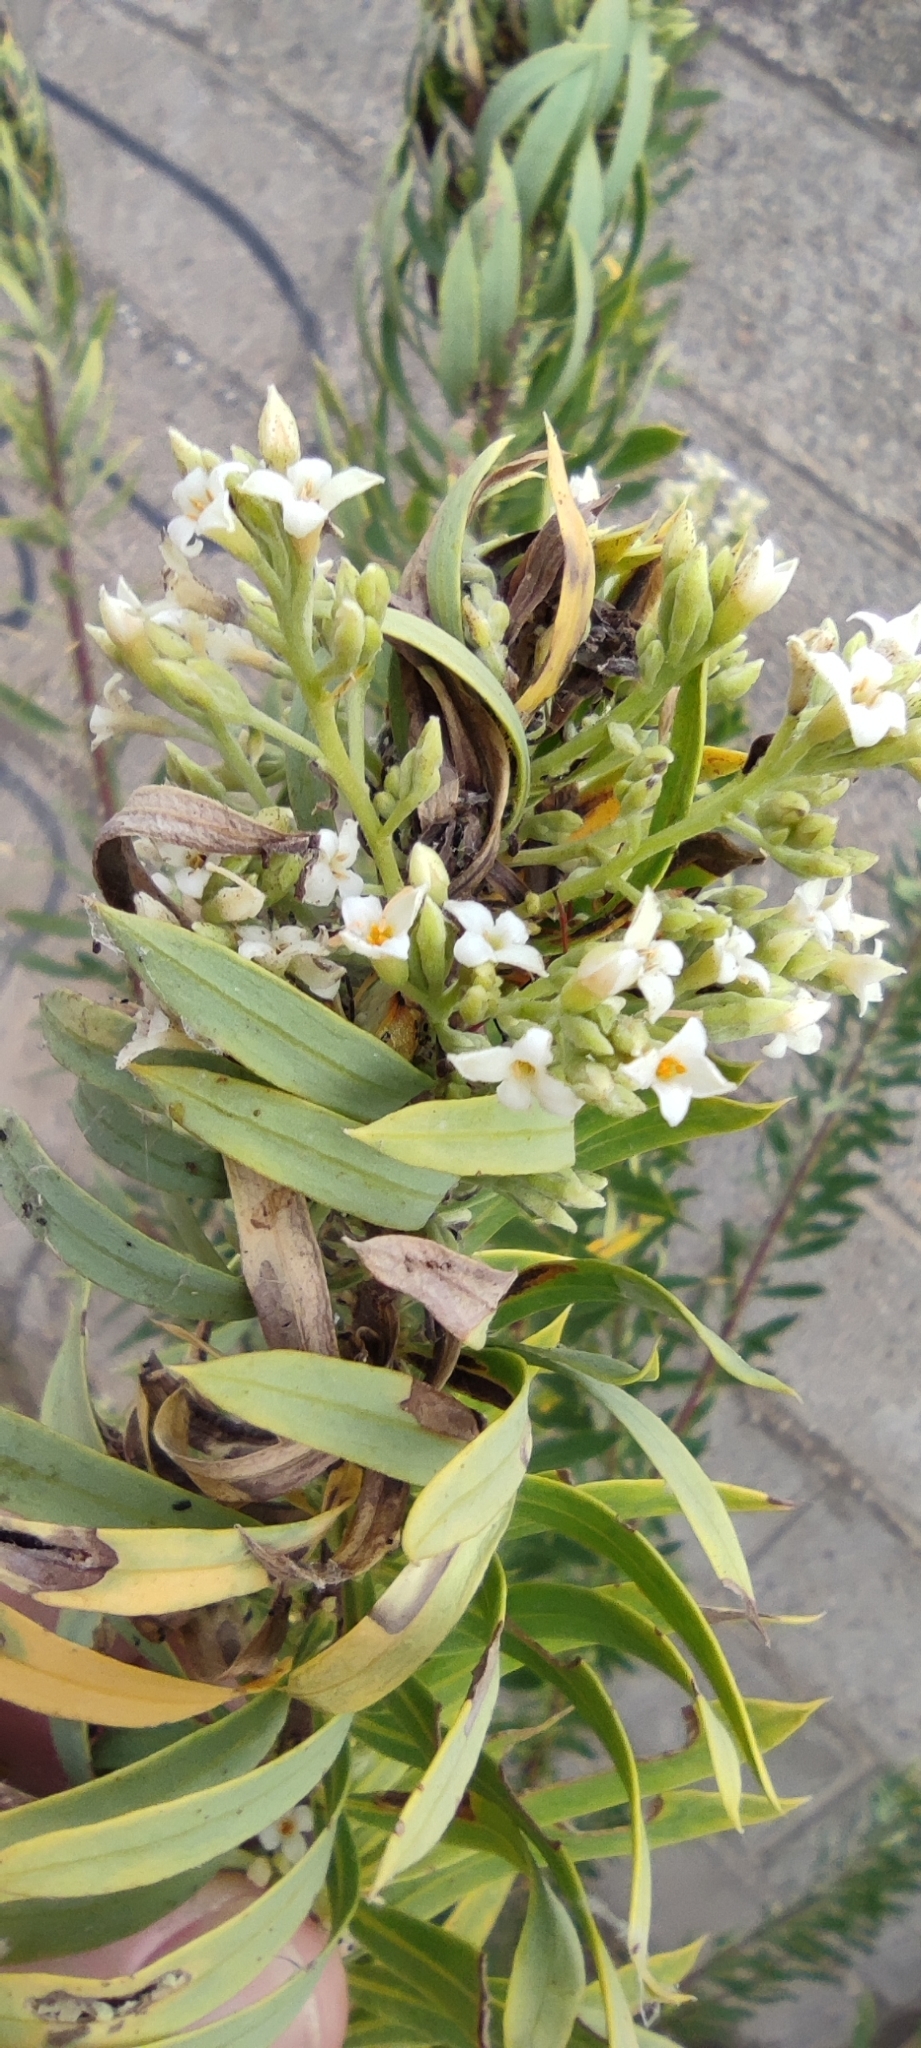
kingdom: Plantae
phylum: Tracheophyta
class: Magnoliopsida
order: Malvales
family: Thymelaeaceae
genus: Daphne
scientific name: Daphne gnidium
